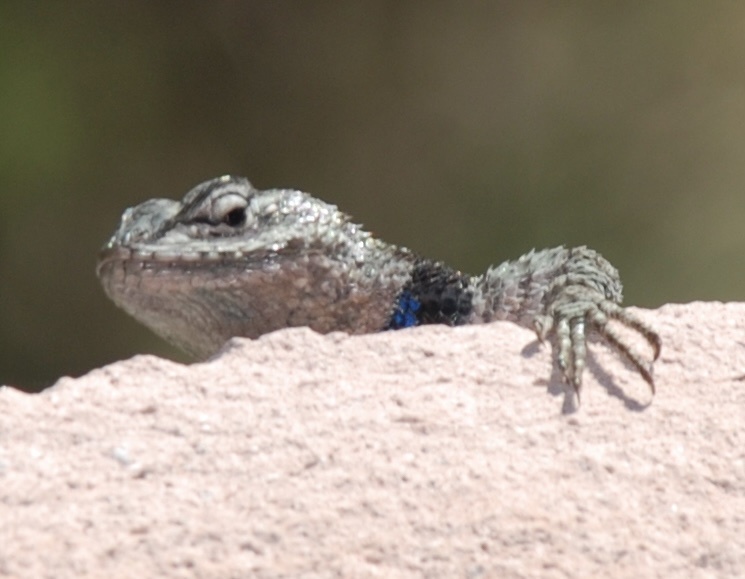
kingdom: Animalia
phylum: Chordata
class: Squamata
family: Phrynosomatidae
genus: Sceloporus
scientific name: Sceloporus jarrovii
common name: Yarrow's spiny lizard
